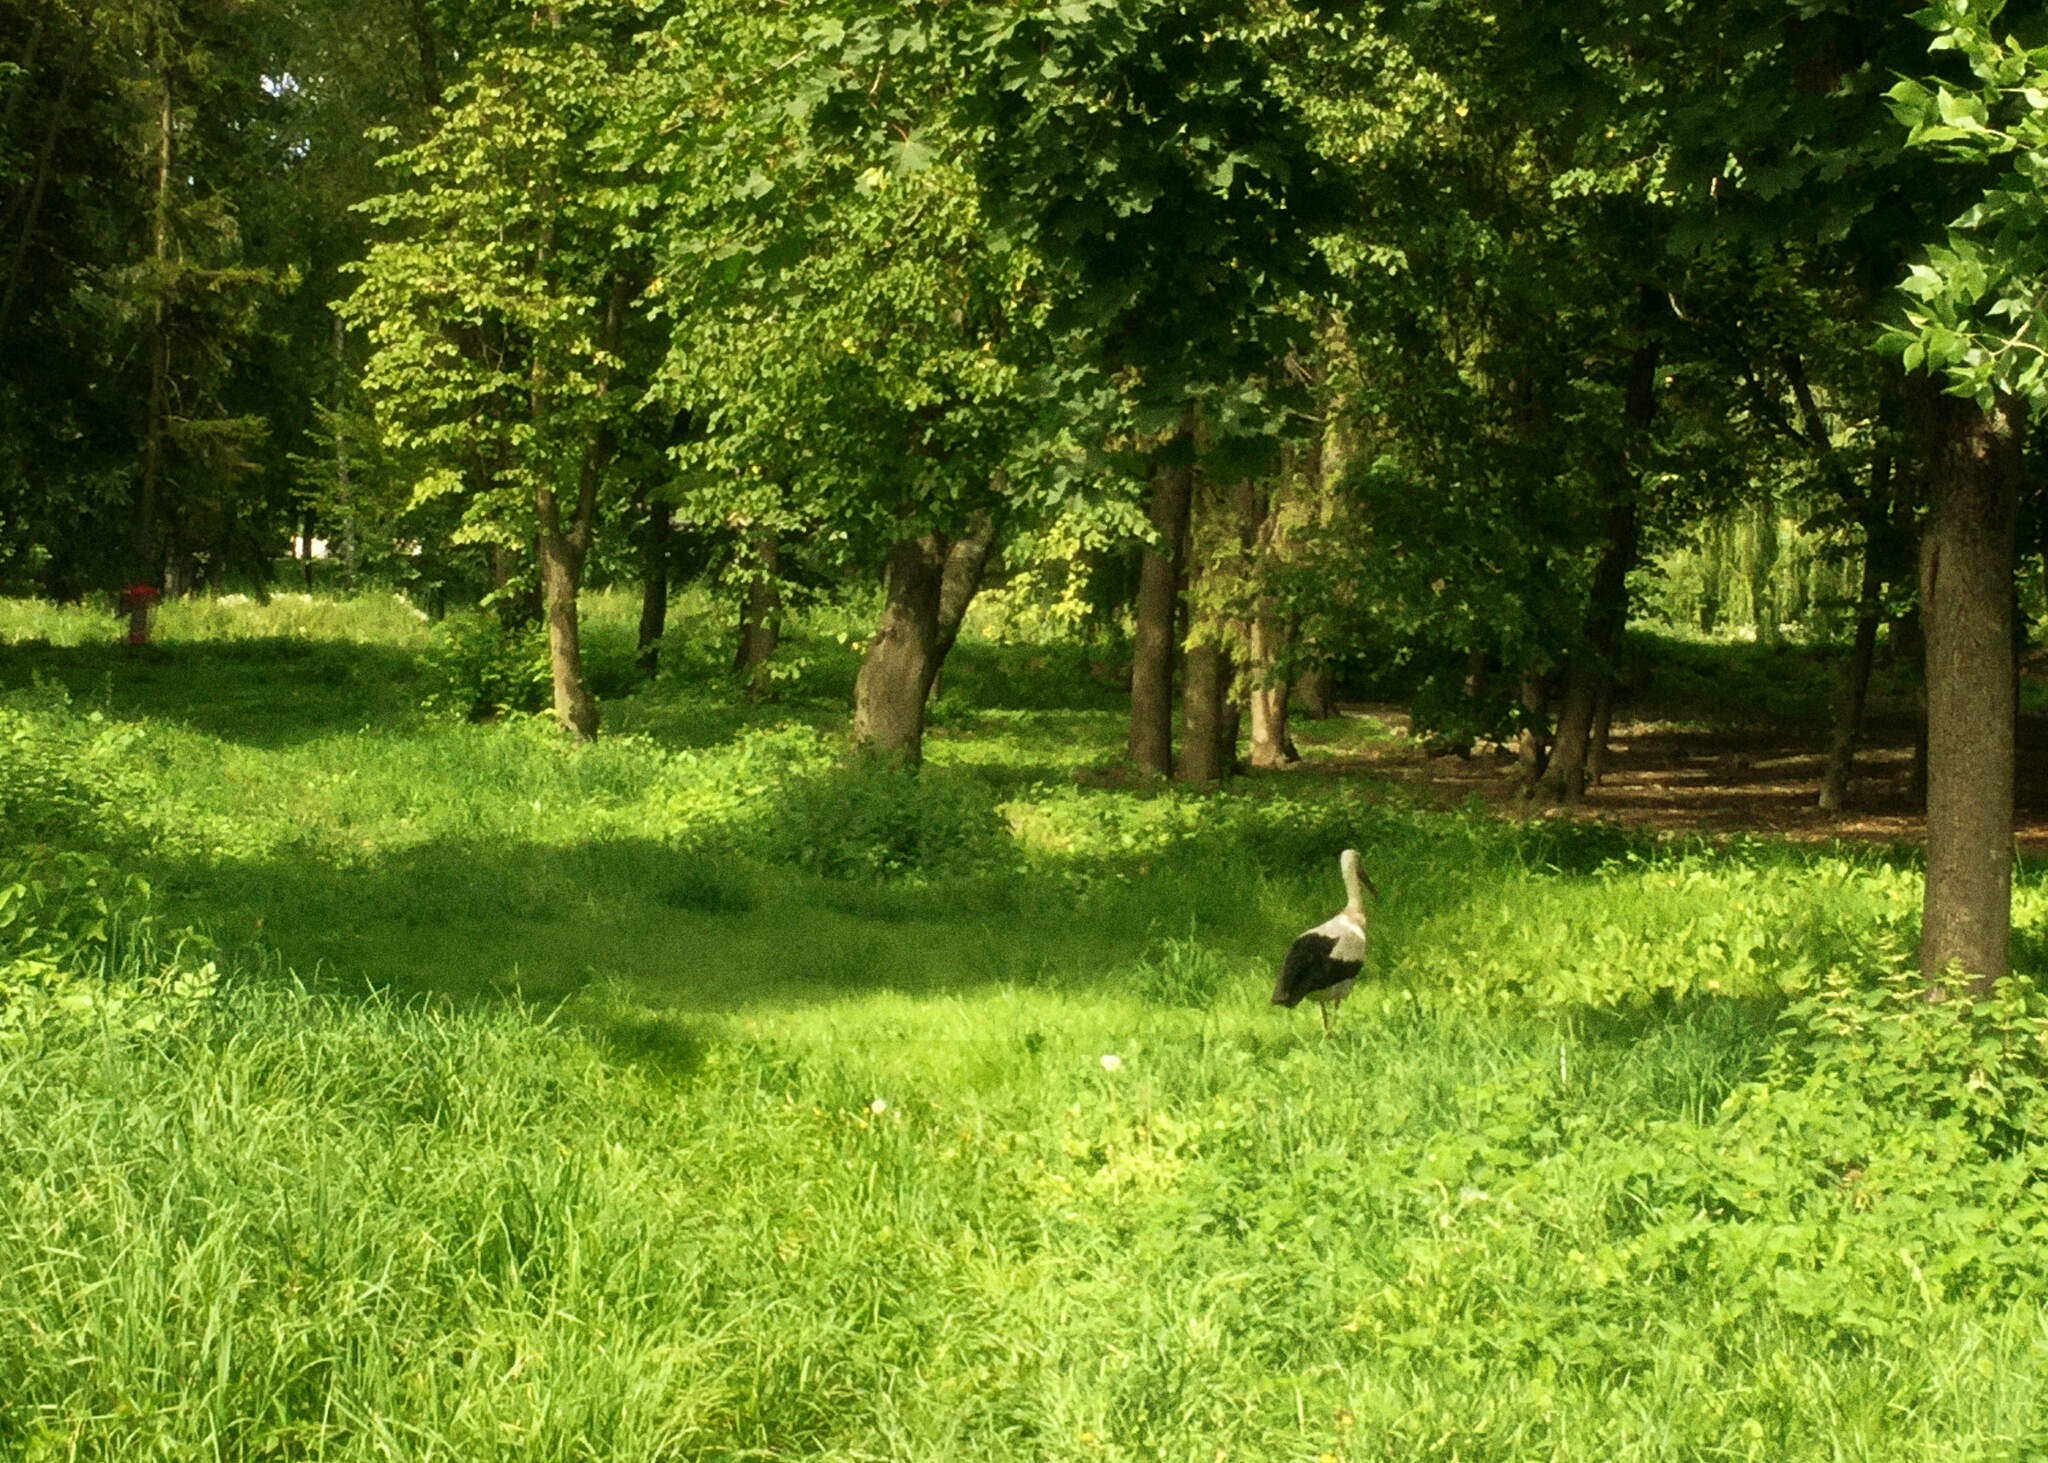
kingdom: Animalia
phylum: Chordata
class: Aves
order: Ciconiiformes
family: Ciconiidae
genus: Ciconia
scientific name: Ciconia ciconia
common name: White stork
